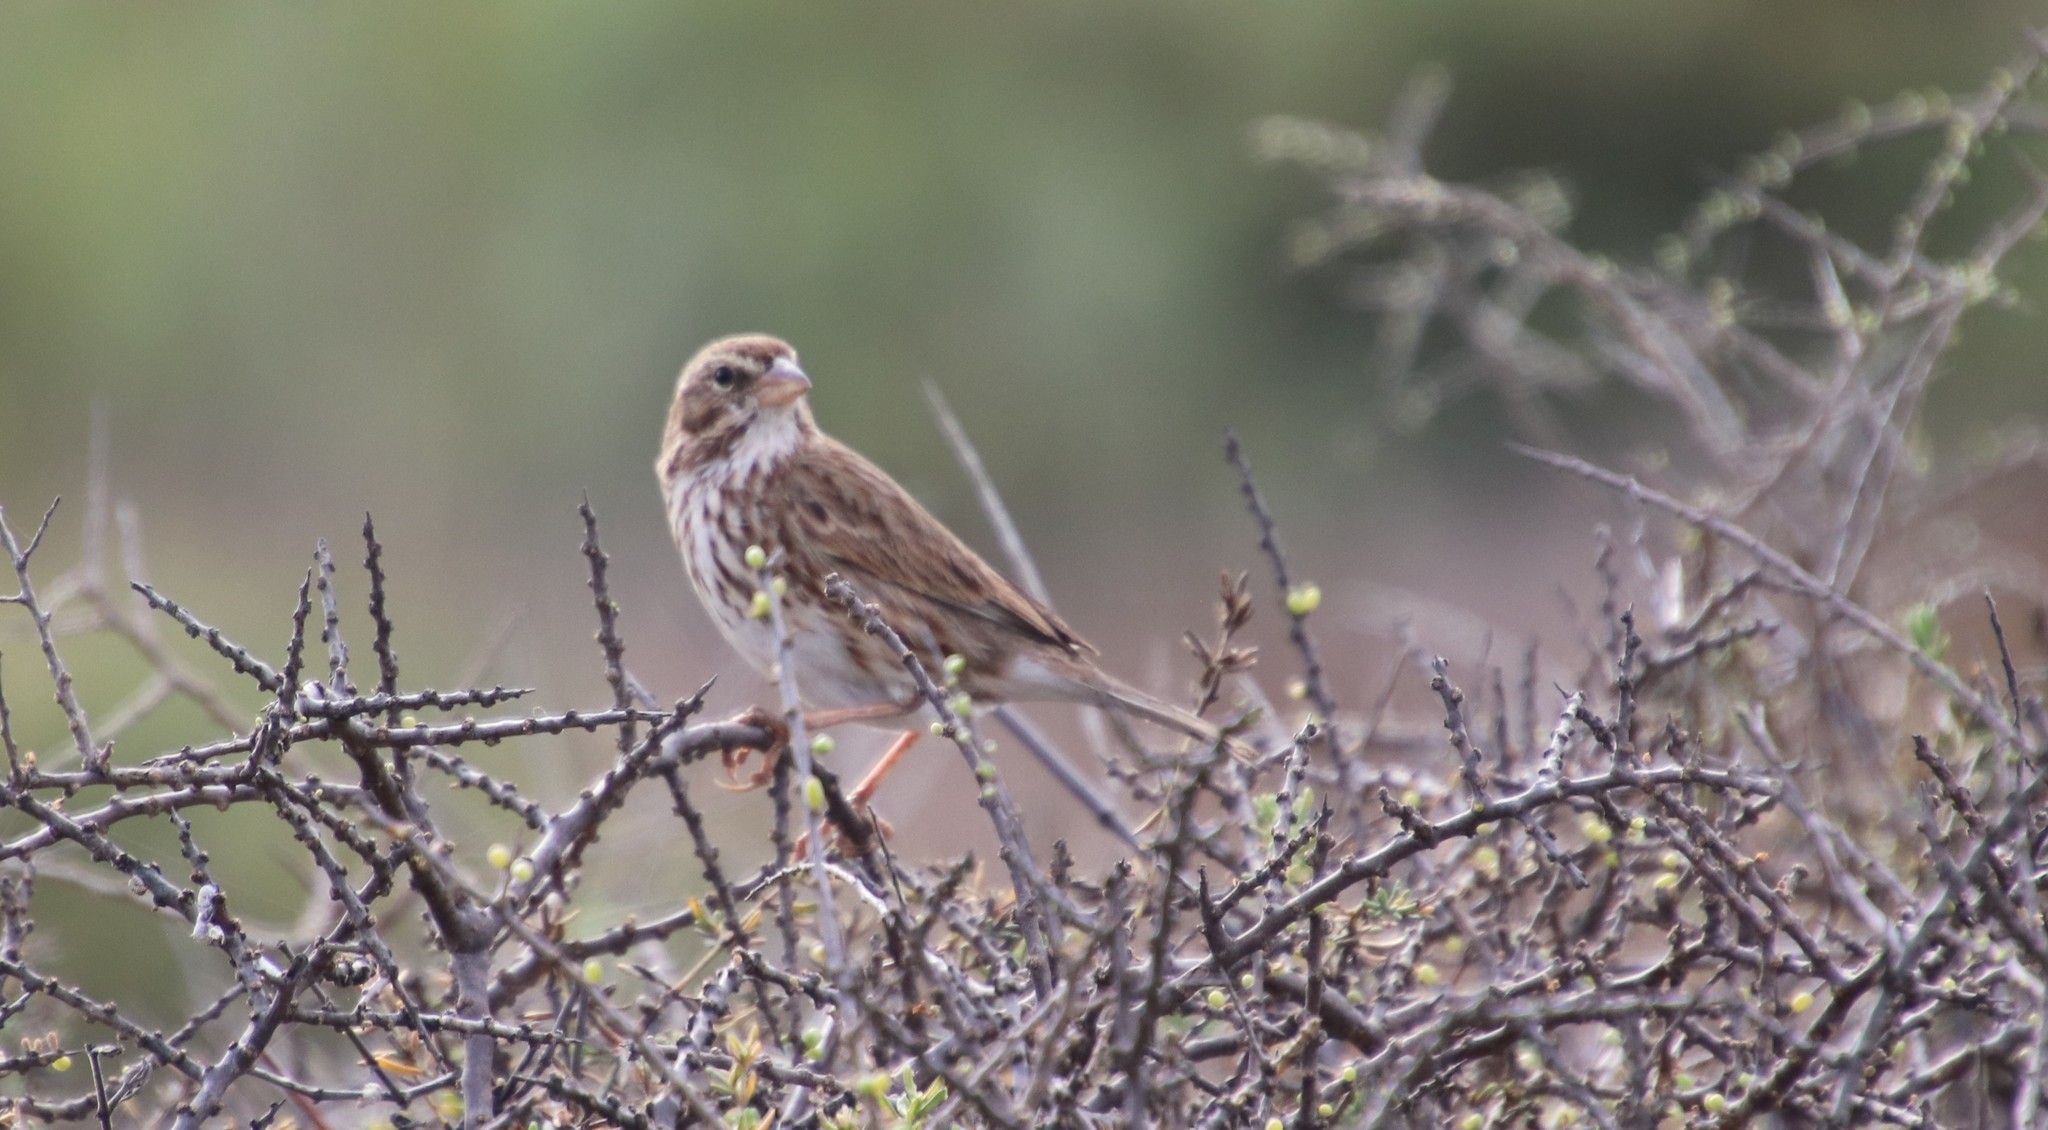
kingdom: Animalia
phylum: Chordata
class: Aves
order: Passeriformes
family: Passerellidae
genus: Passerculus
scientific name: Passerculus sandwichensis
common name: Savannah sparrow
